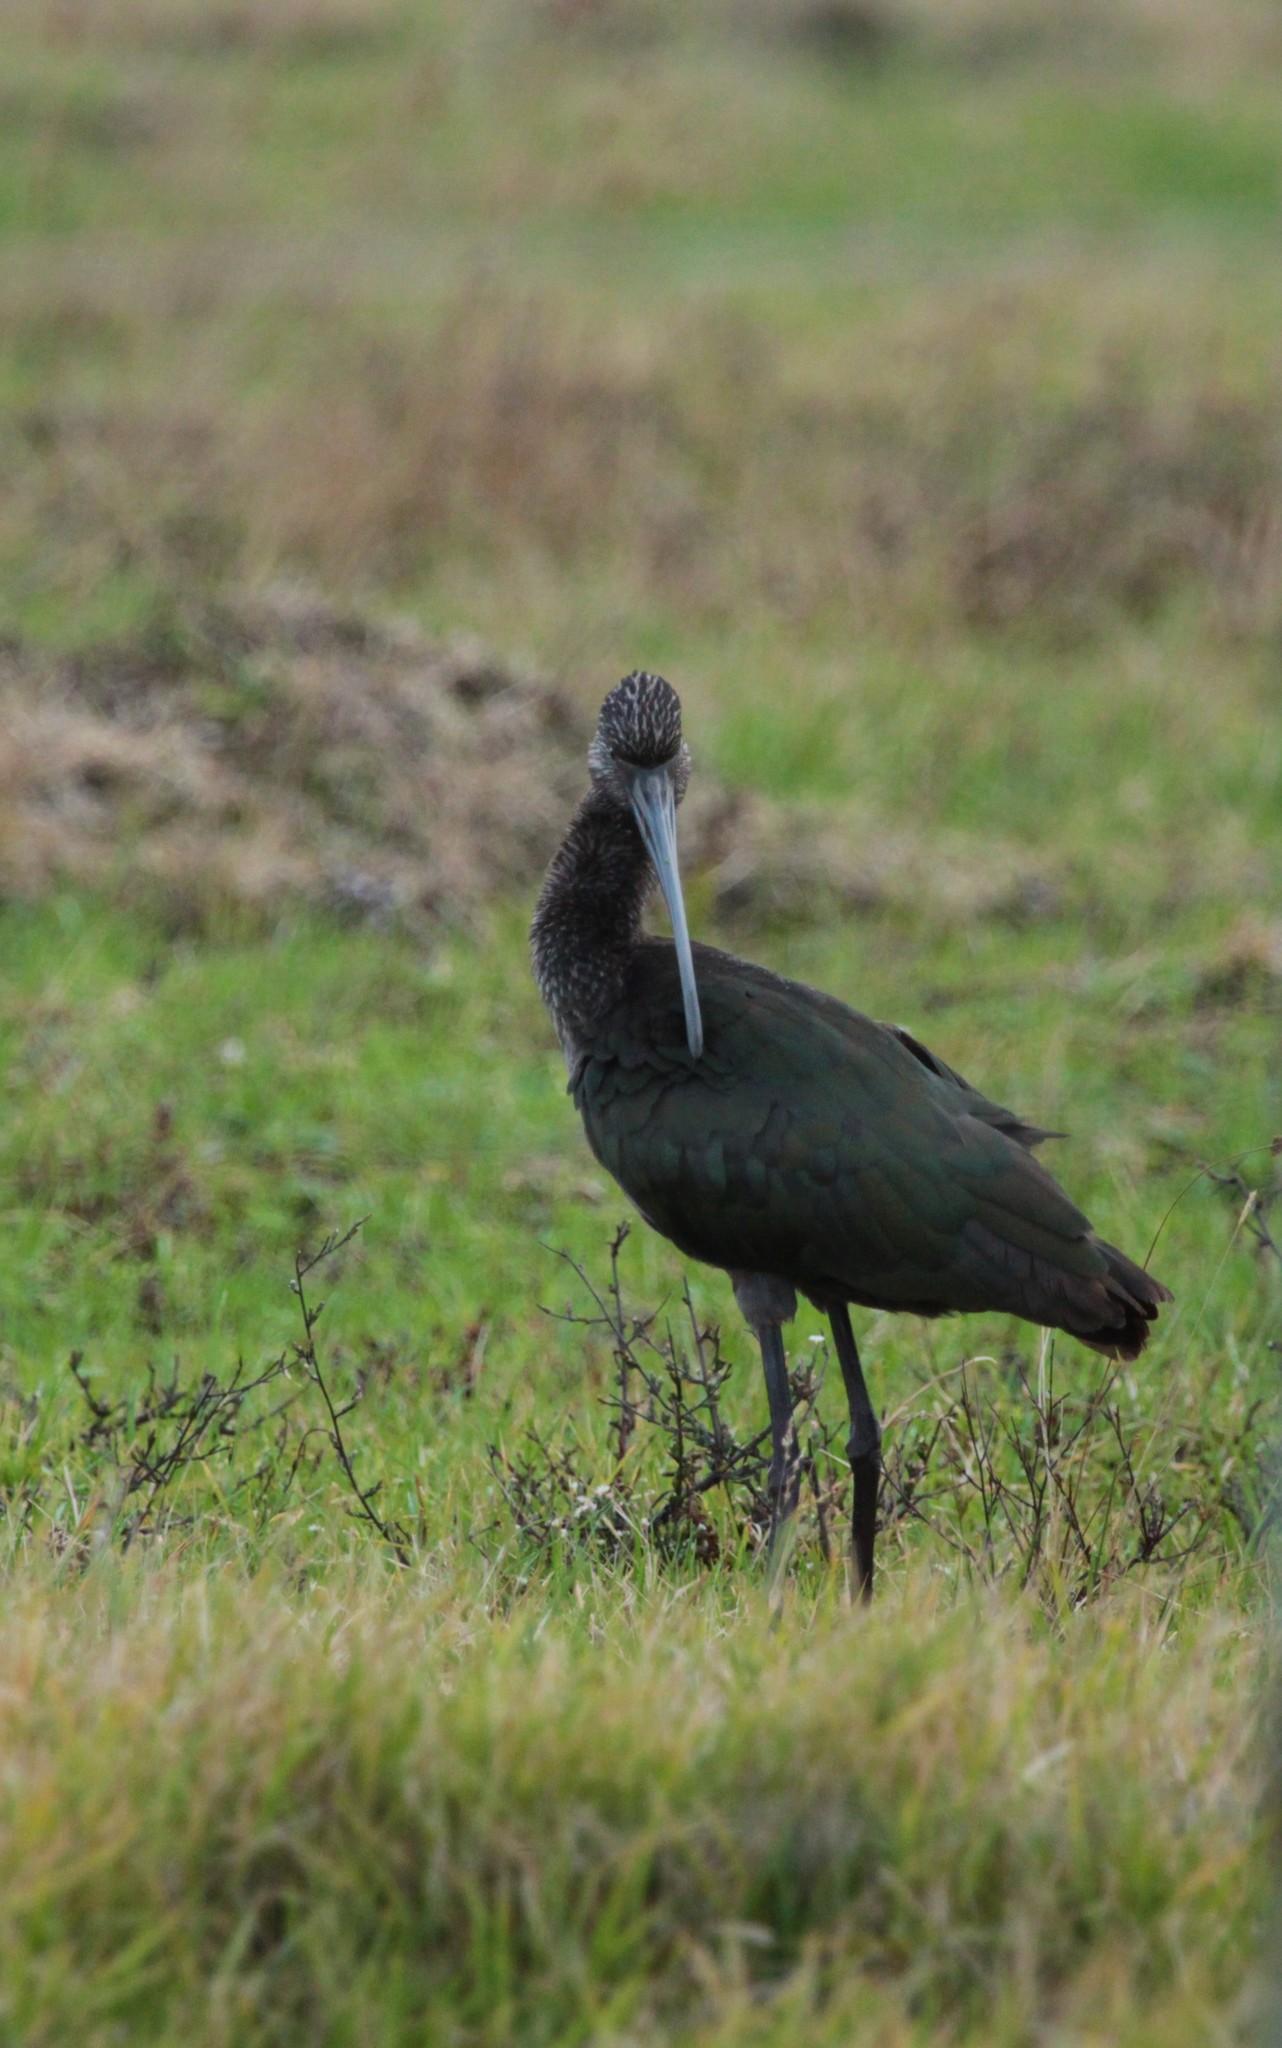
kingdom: Animalia
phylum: Chordata
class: Aves
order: Pelecaniformes
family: Threskiornithidae
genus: Plegadis
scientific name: Plegadis chihi
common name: White-faced ibis
